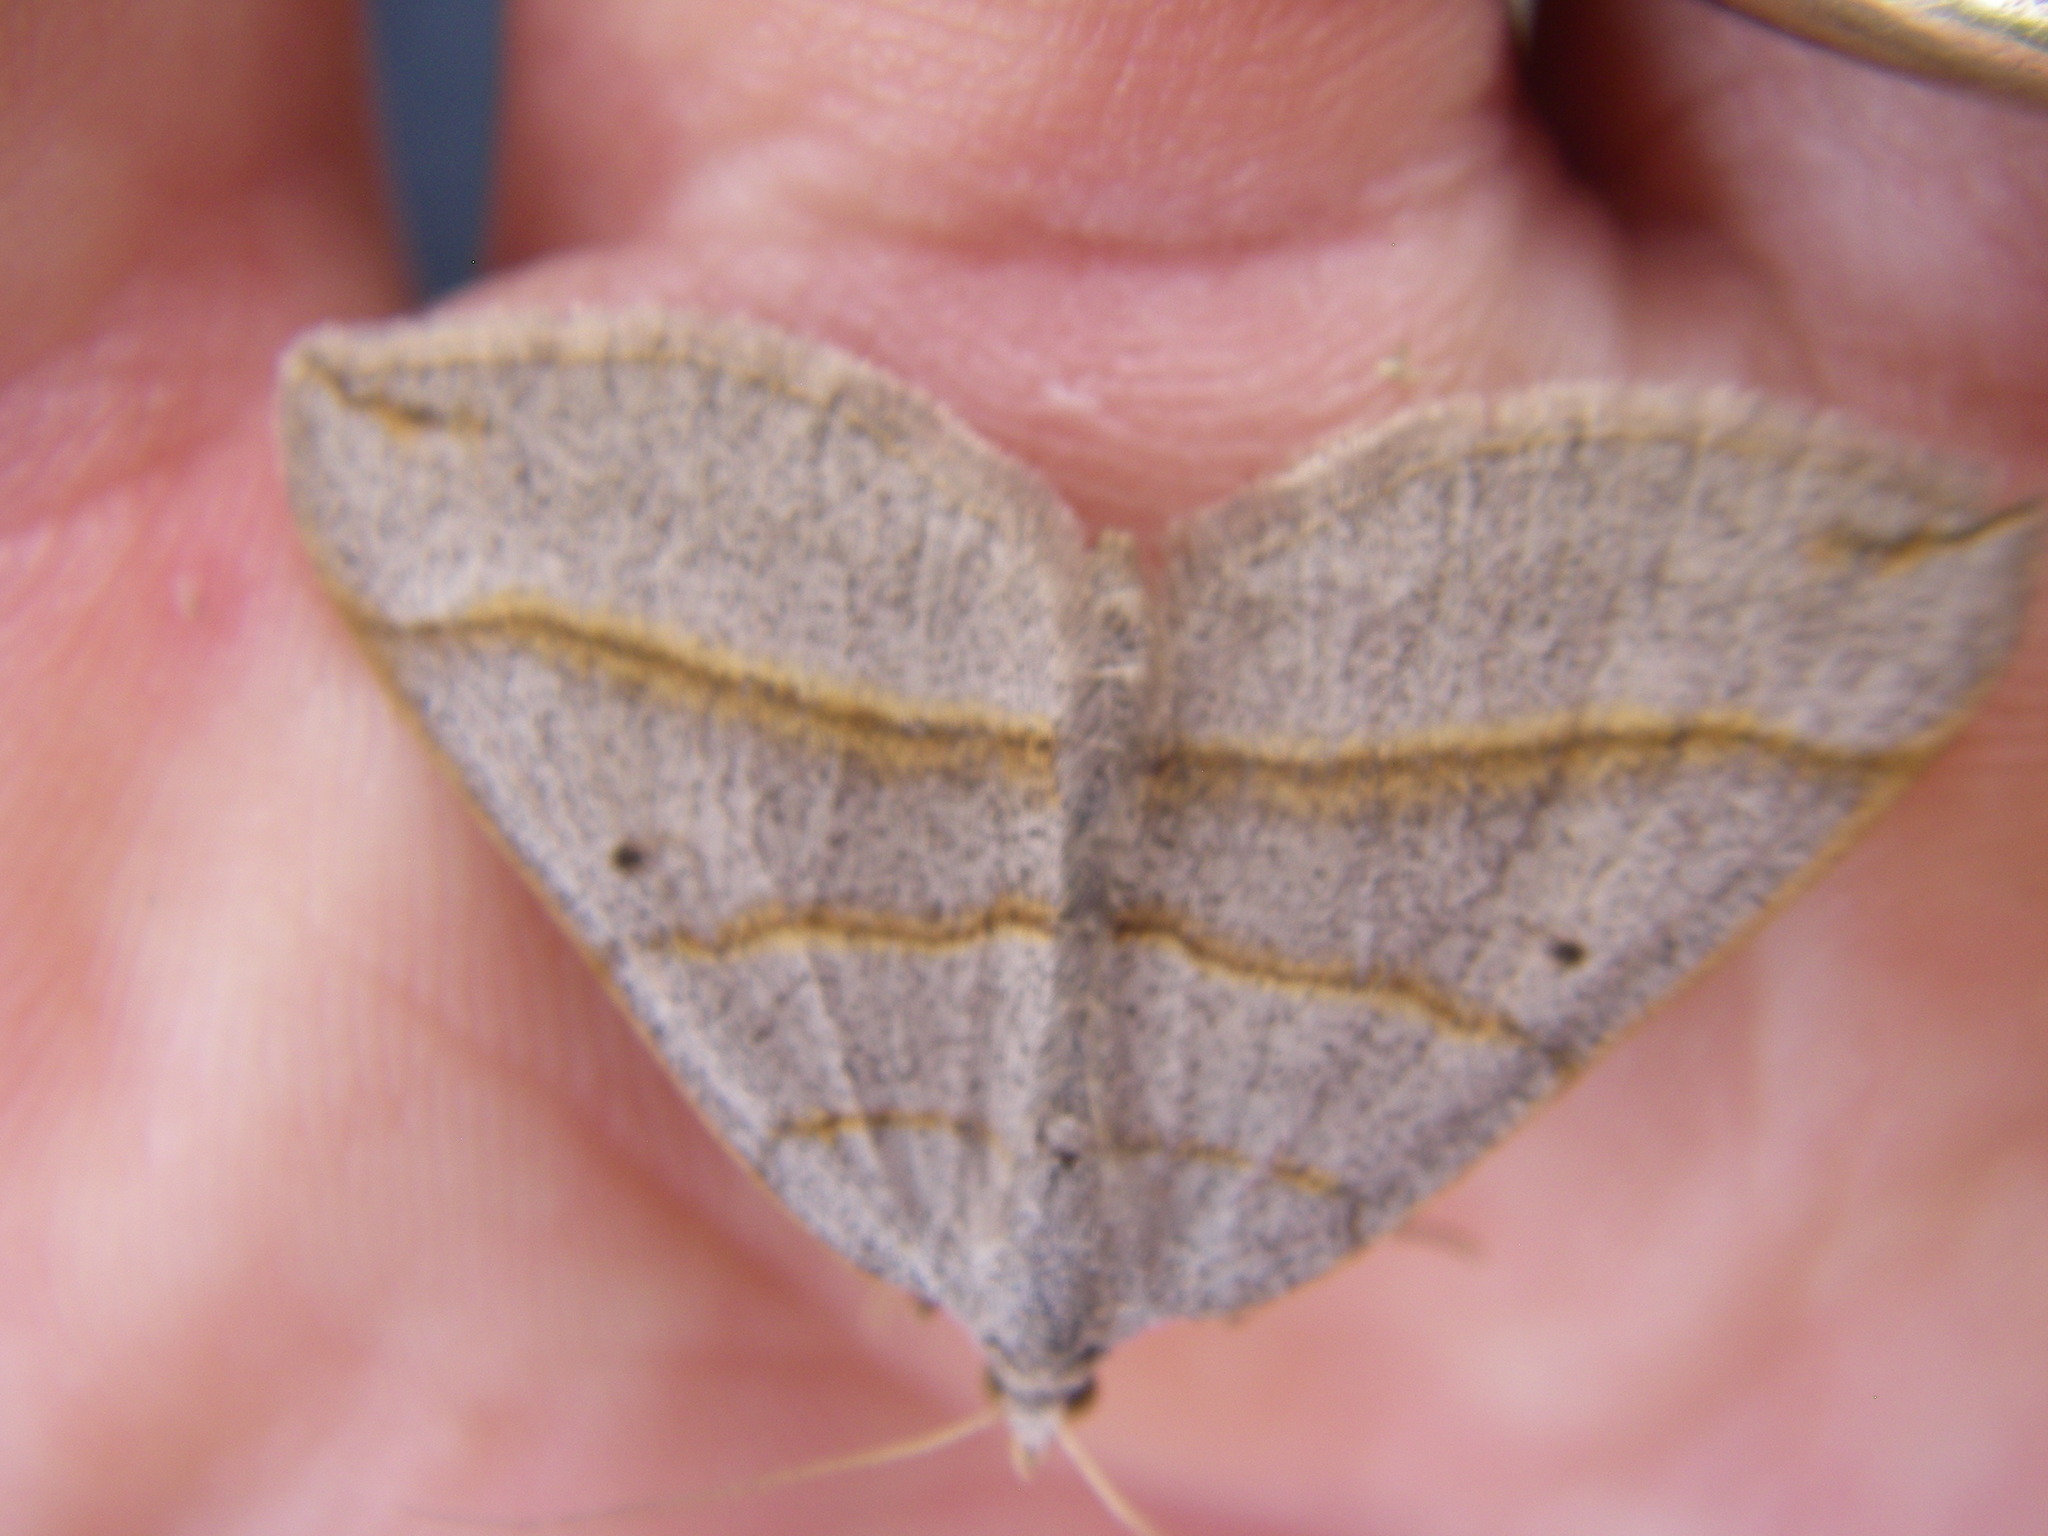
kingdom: Animalia
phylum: Arthropoda
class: Insecta
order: Lepidoptera
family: Geometridae
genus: Scotopteryx
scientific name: Scotopteryx luridata
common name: July belle
